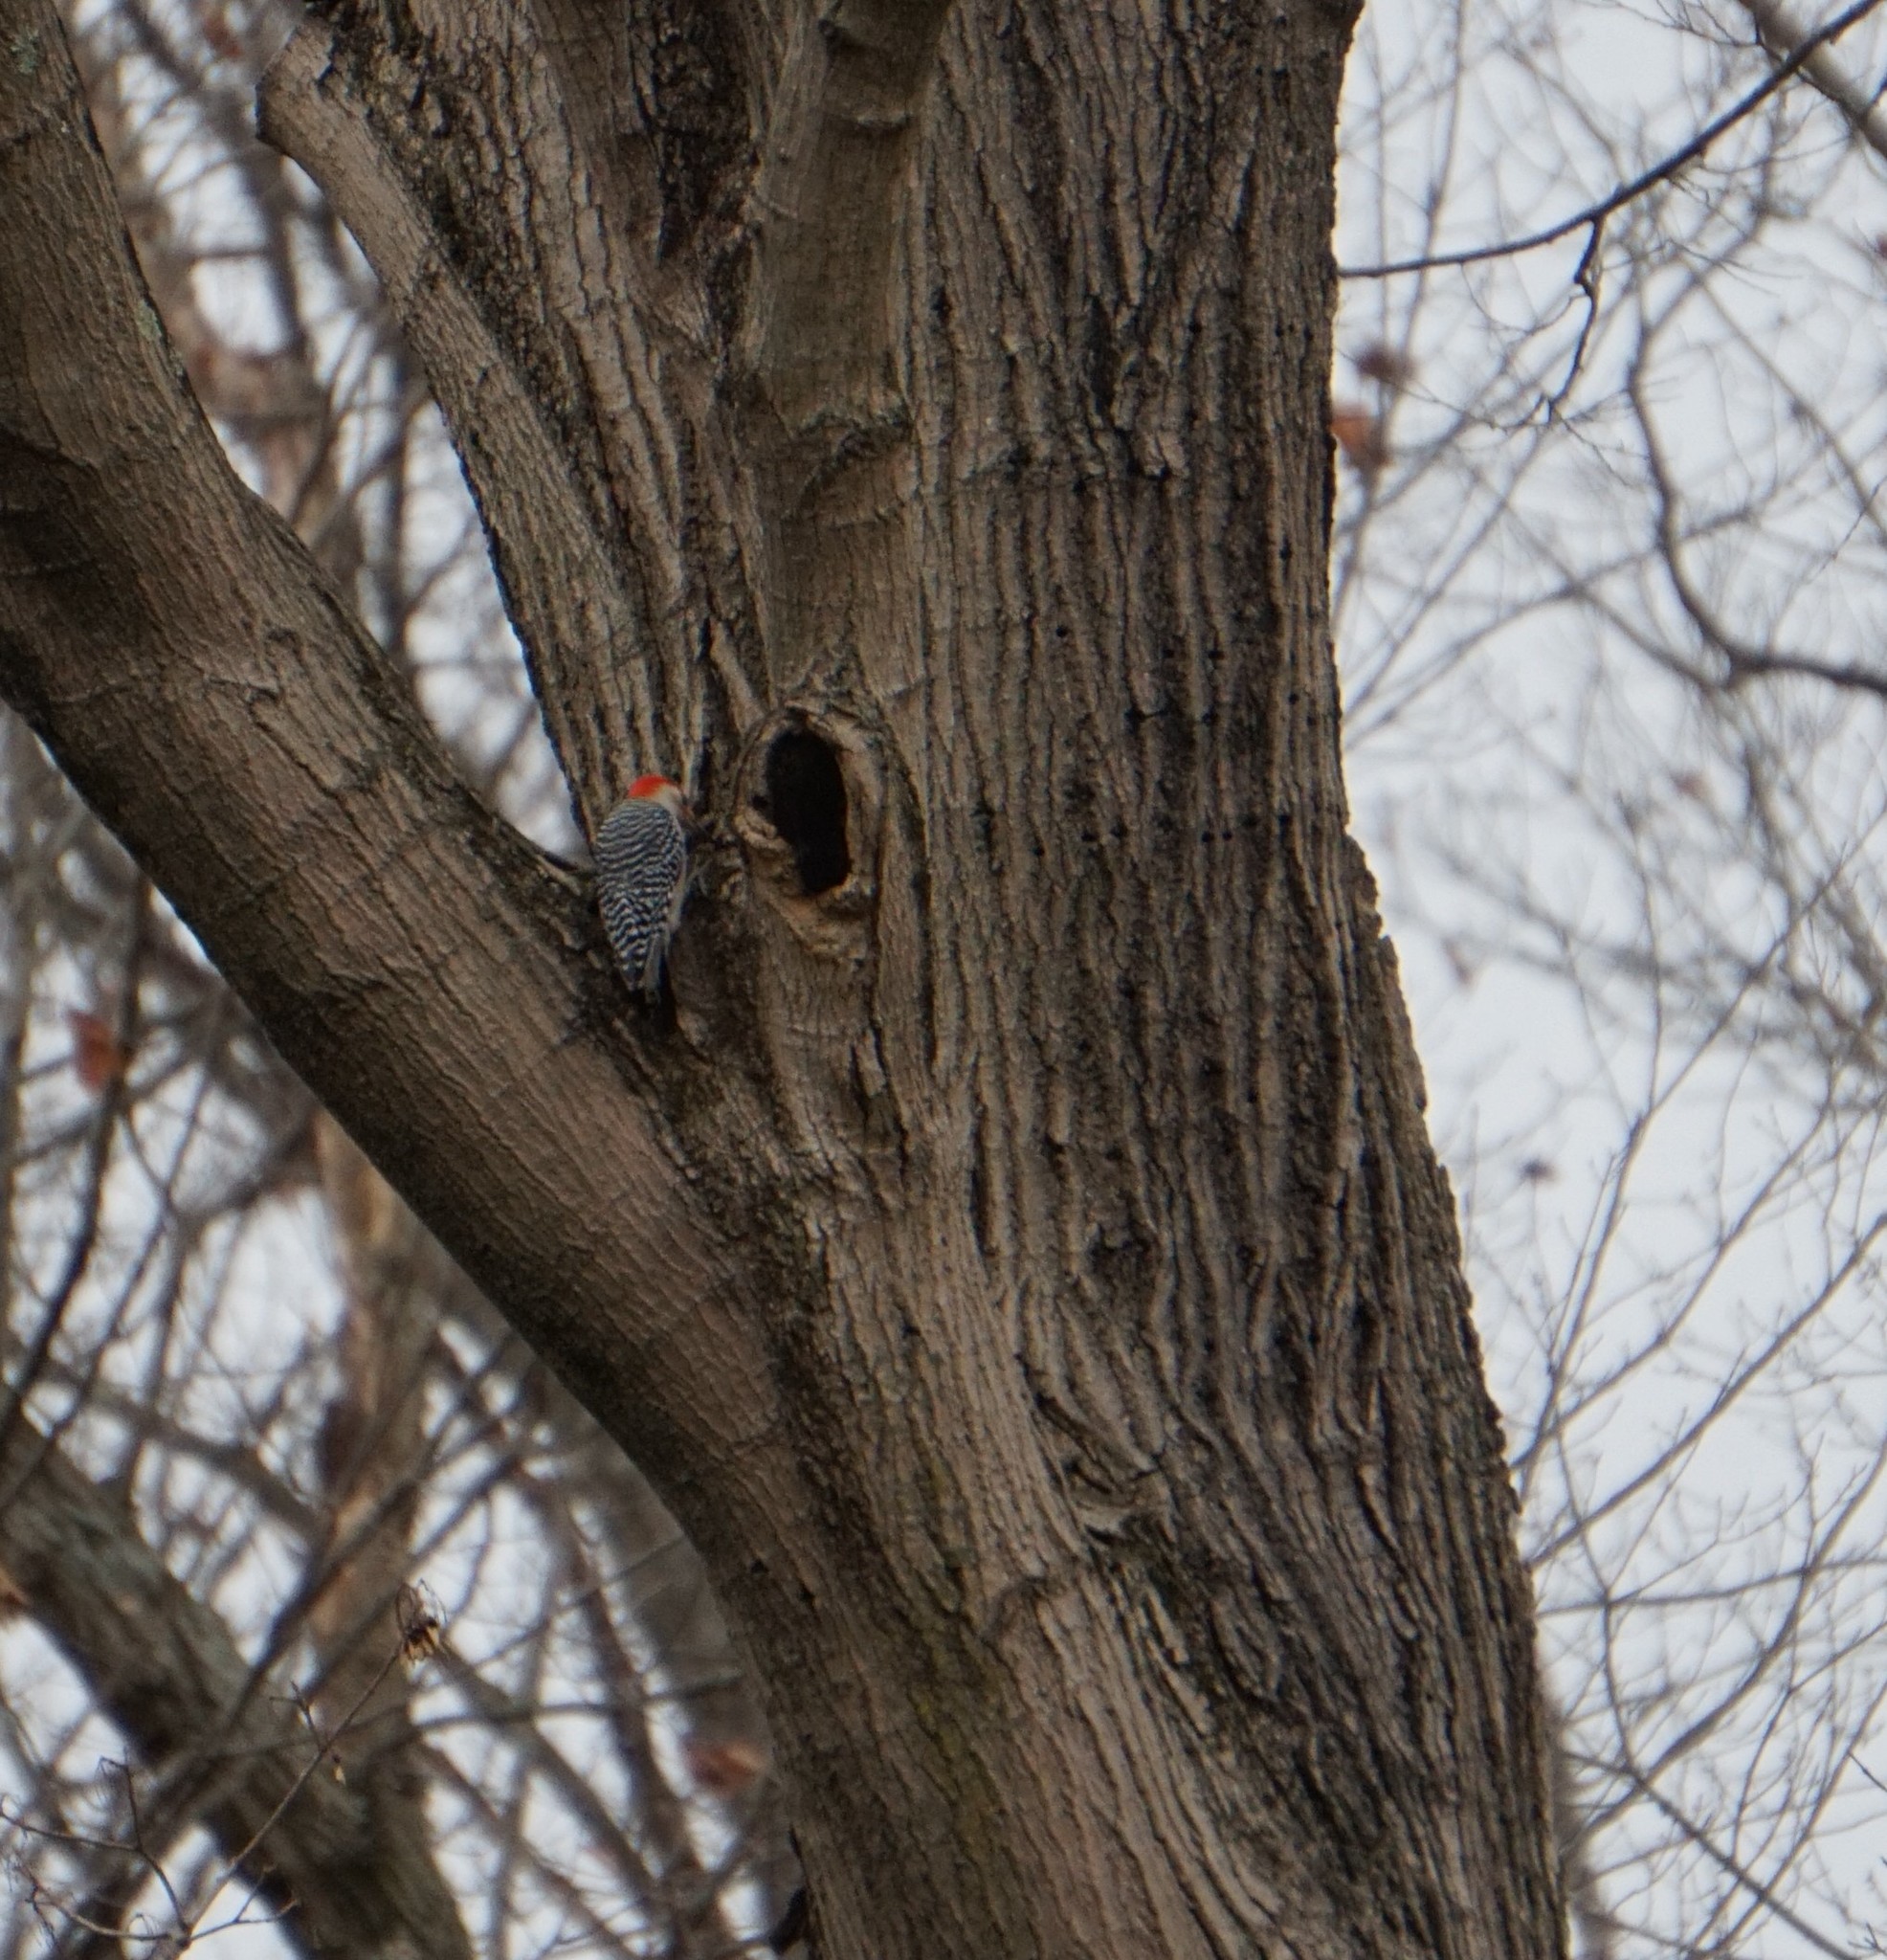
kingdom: Animalia
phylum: Chordata
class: Aves
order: Piciformes
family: Picidae
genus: Melanerpes
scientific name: Melanerpes carolinus
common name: Red-bellied woodpecker
